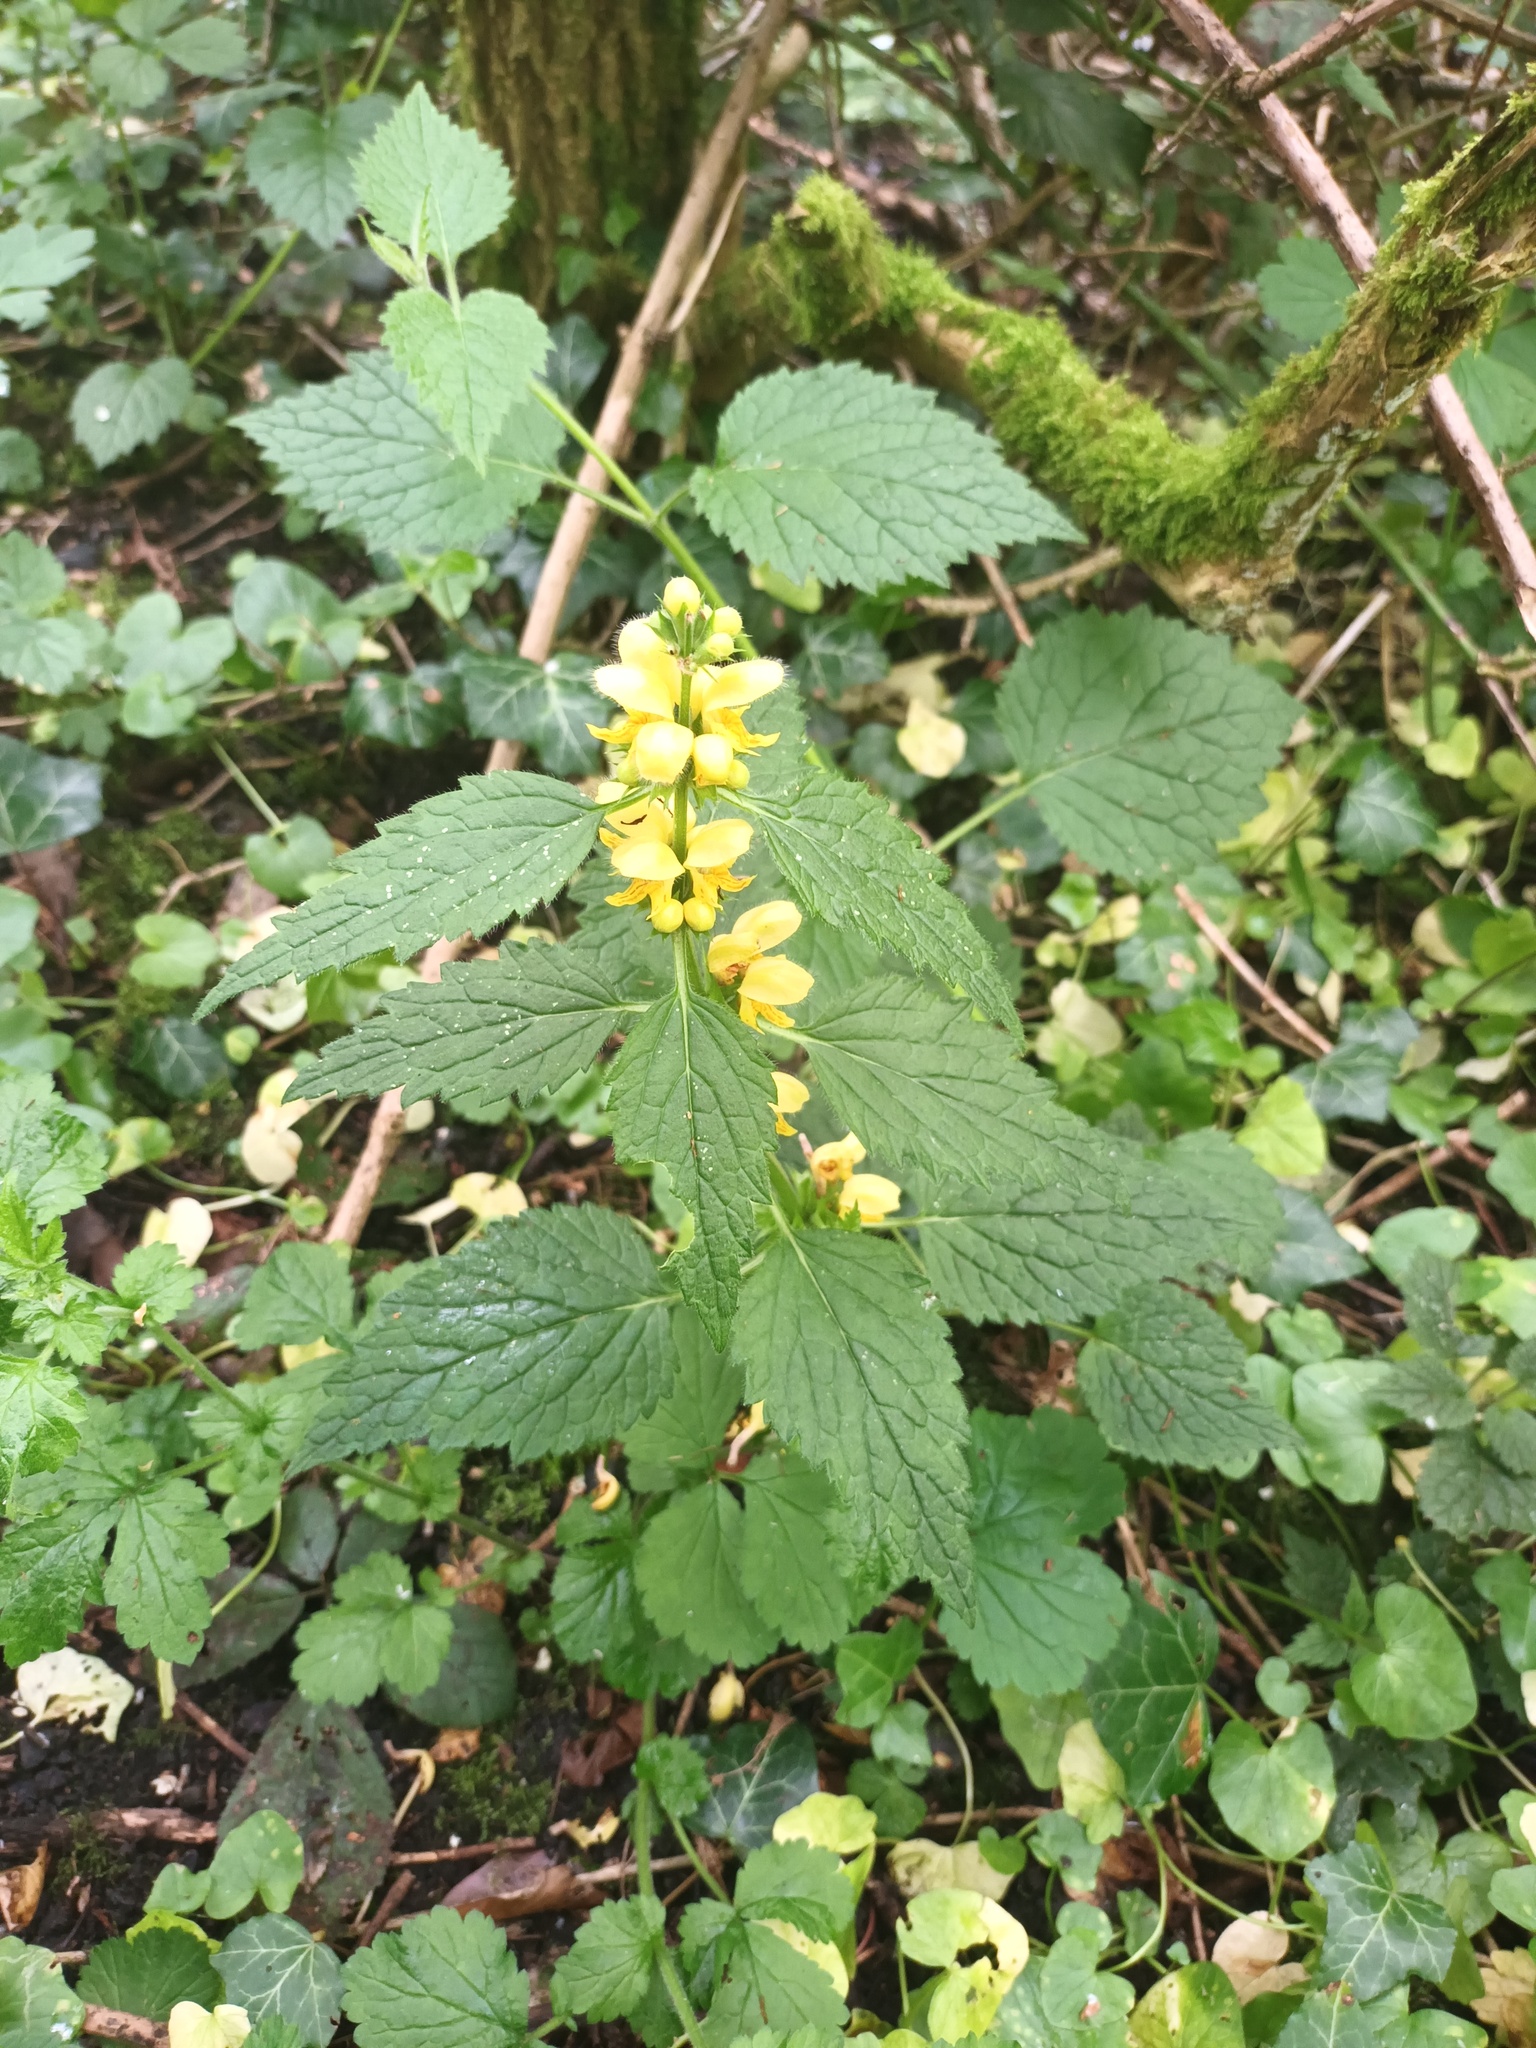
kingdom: Plantae
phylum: Tracheophyta
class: Magnoliopsida
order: Lamiales
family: Lamiaceae
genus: Lamium
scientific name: Lamium galeobdolon
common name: Yellow archangel
